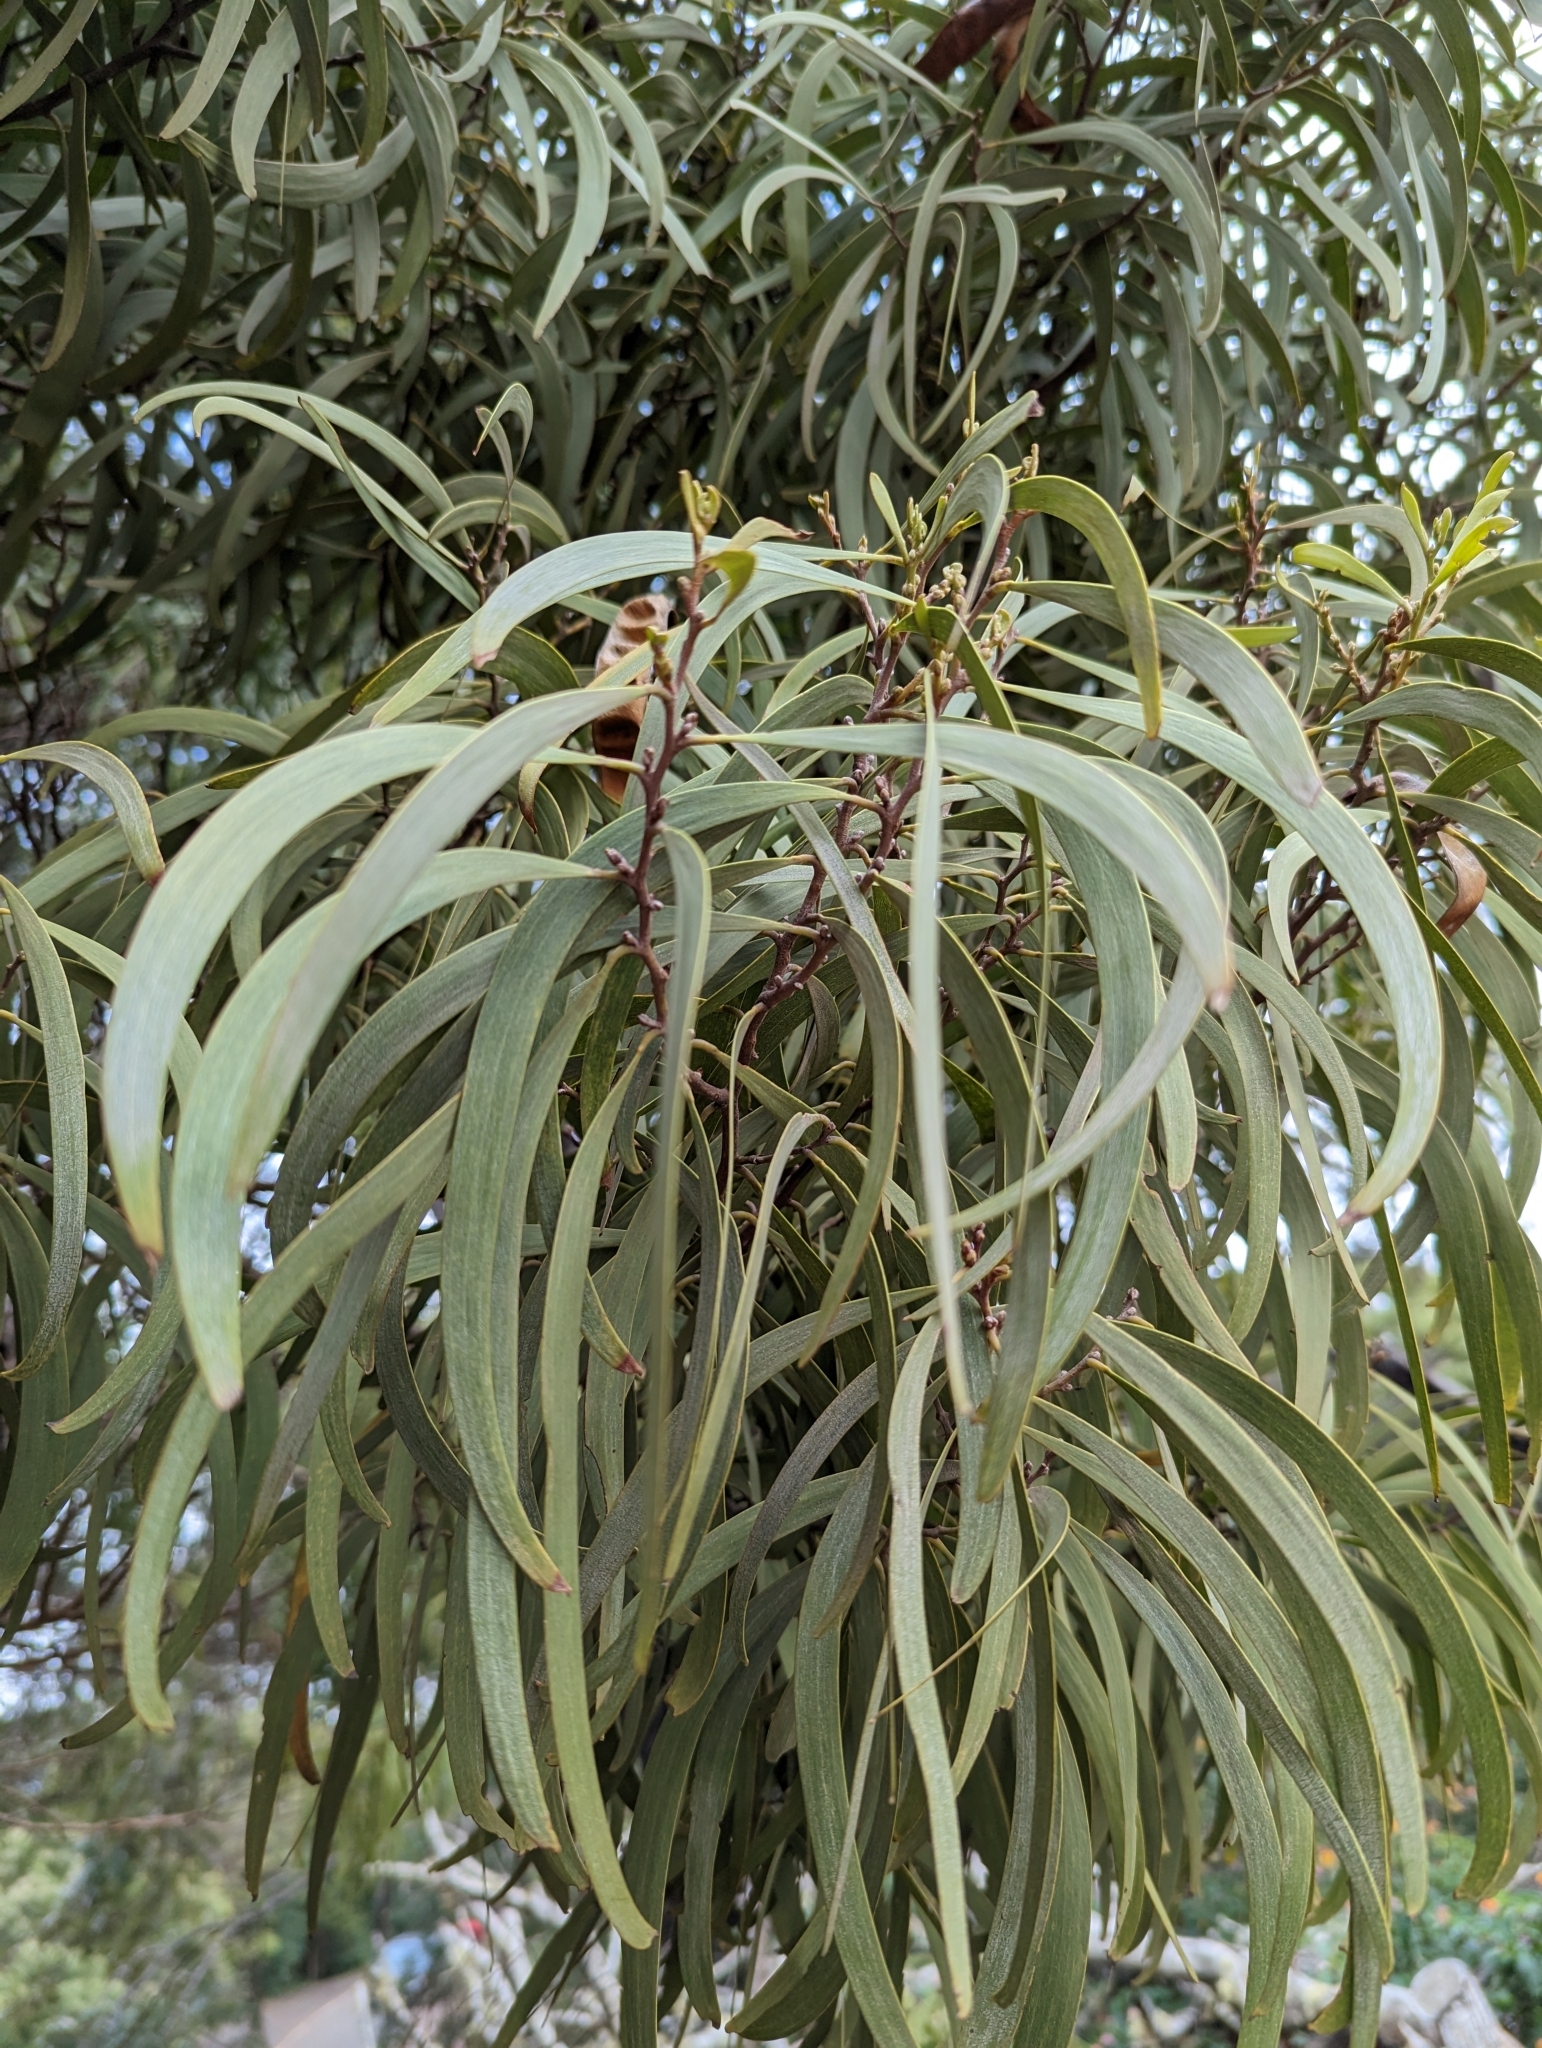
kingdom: Plantae
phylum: Tracheophyta
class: Magnoliopsida
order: Fabales
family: Fabaceae
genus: Acacia
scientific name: Acacia koa
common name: Gray koa
